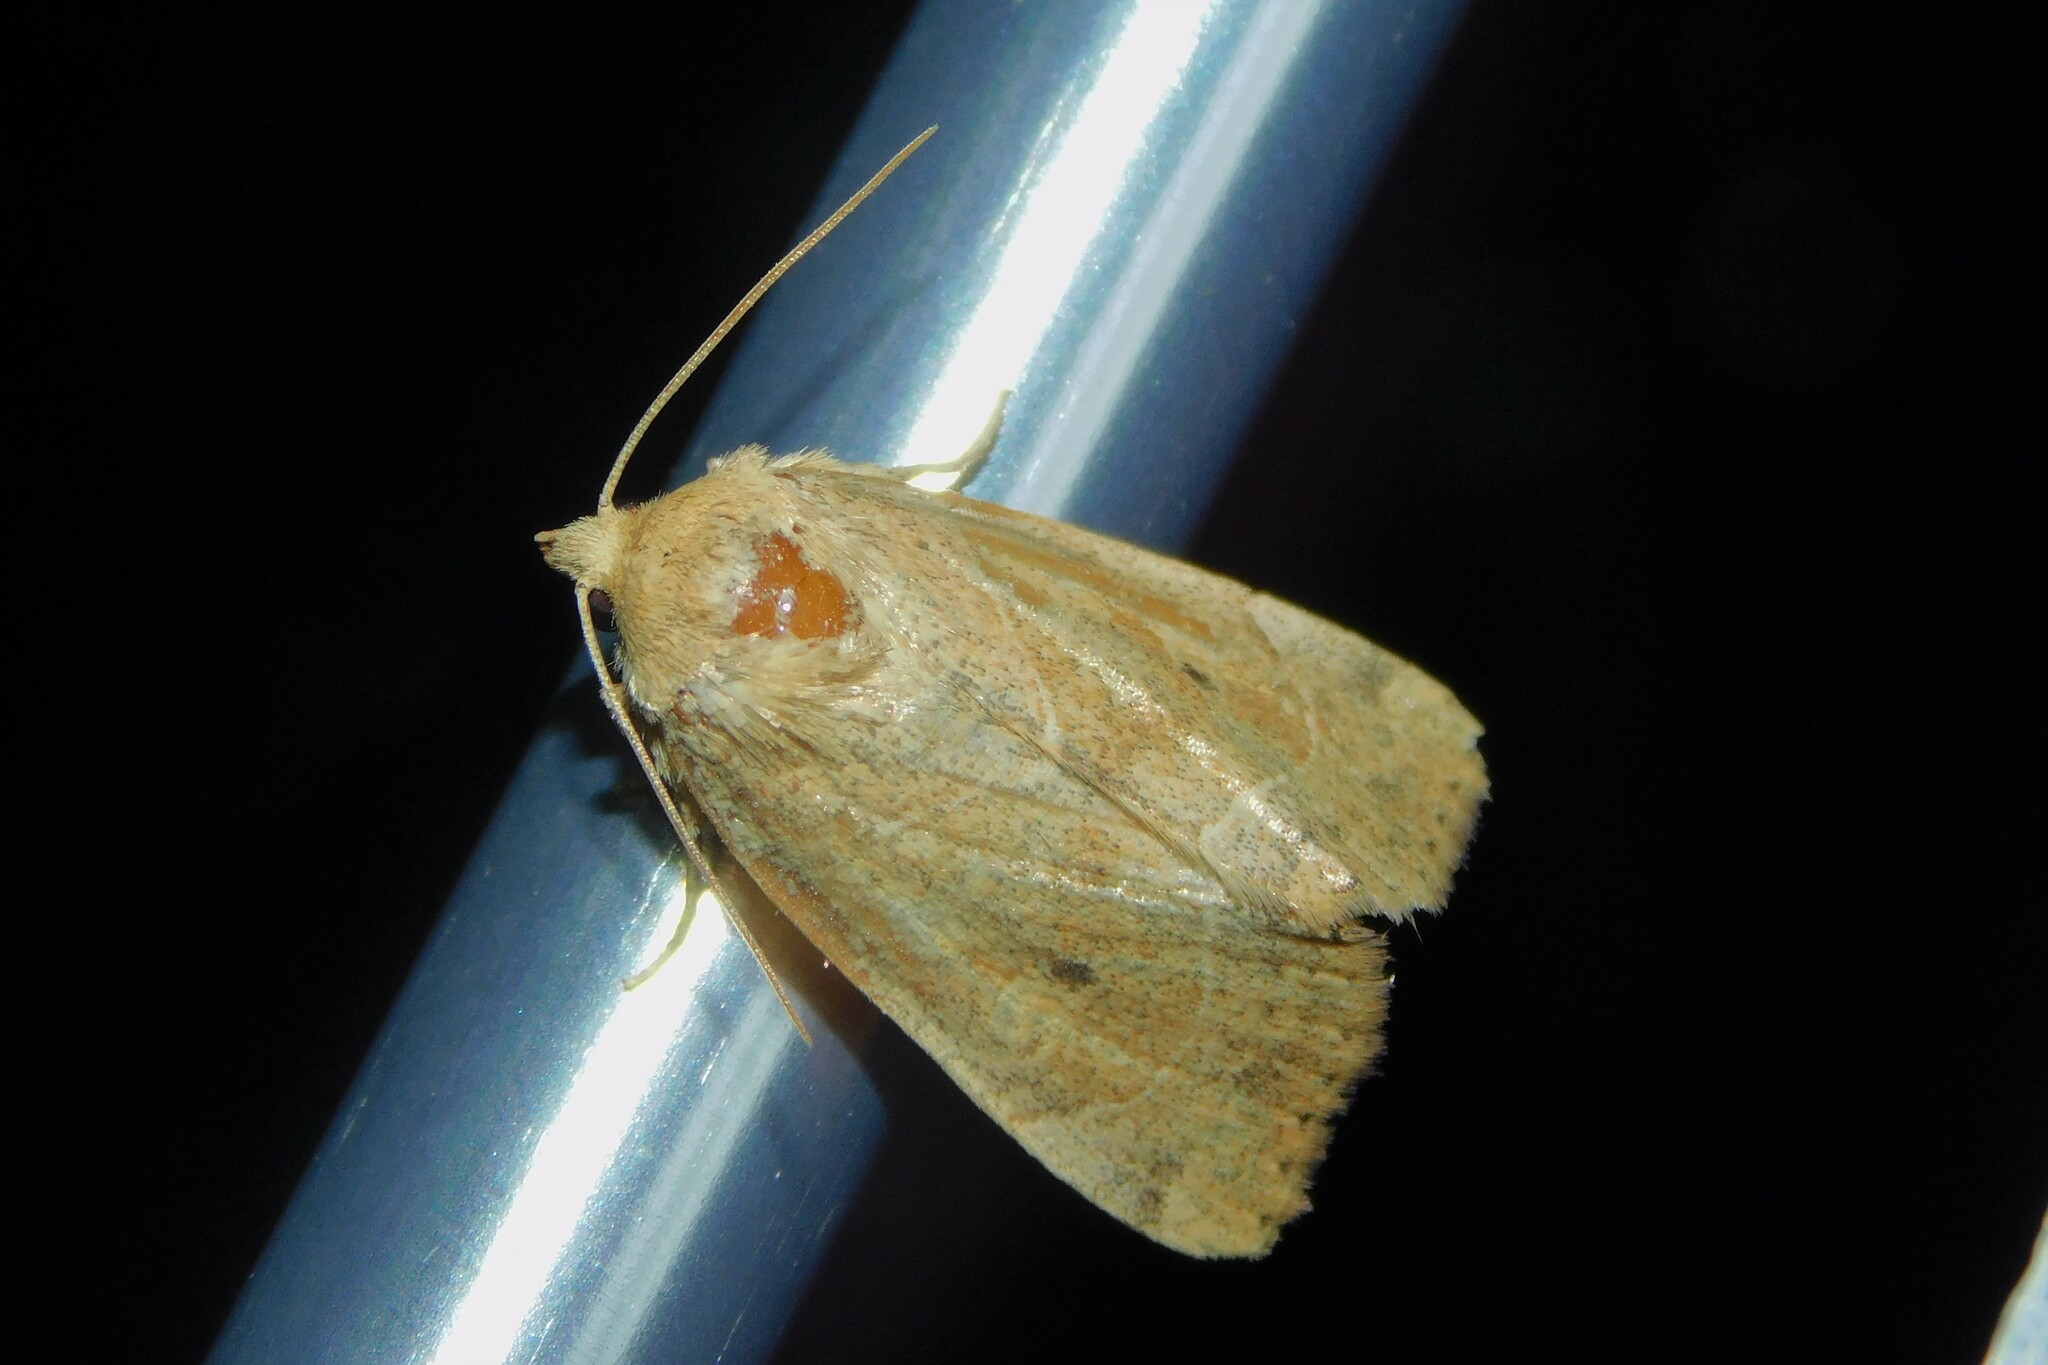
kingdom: Animalia
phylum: Arthropoda
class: Insecta
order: Lepidoptera
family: Noctuidae
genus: Cosmia
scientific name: Cosmia trapezina
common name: Dun-bar
